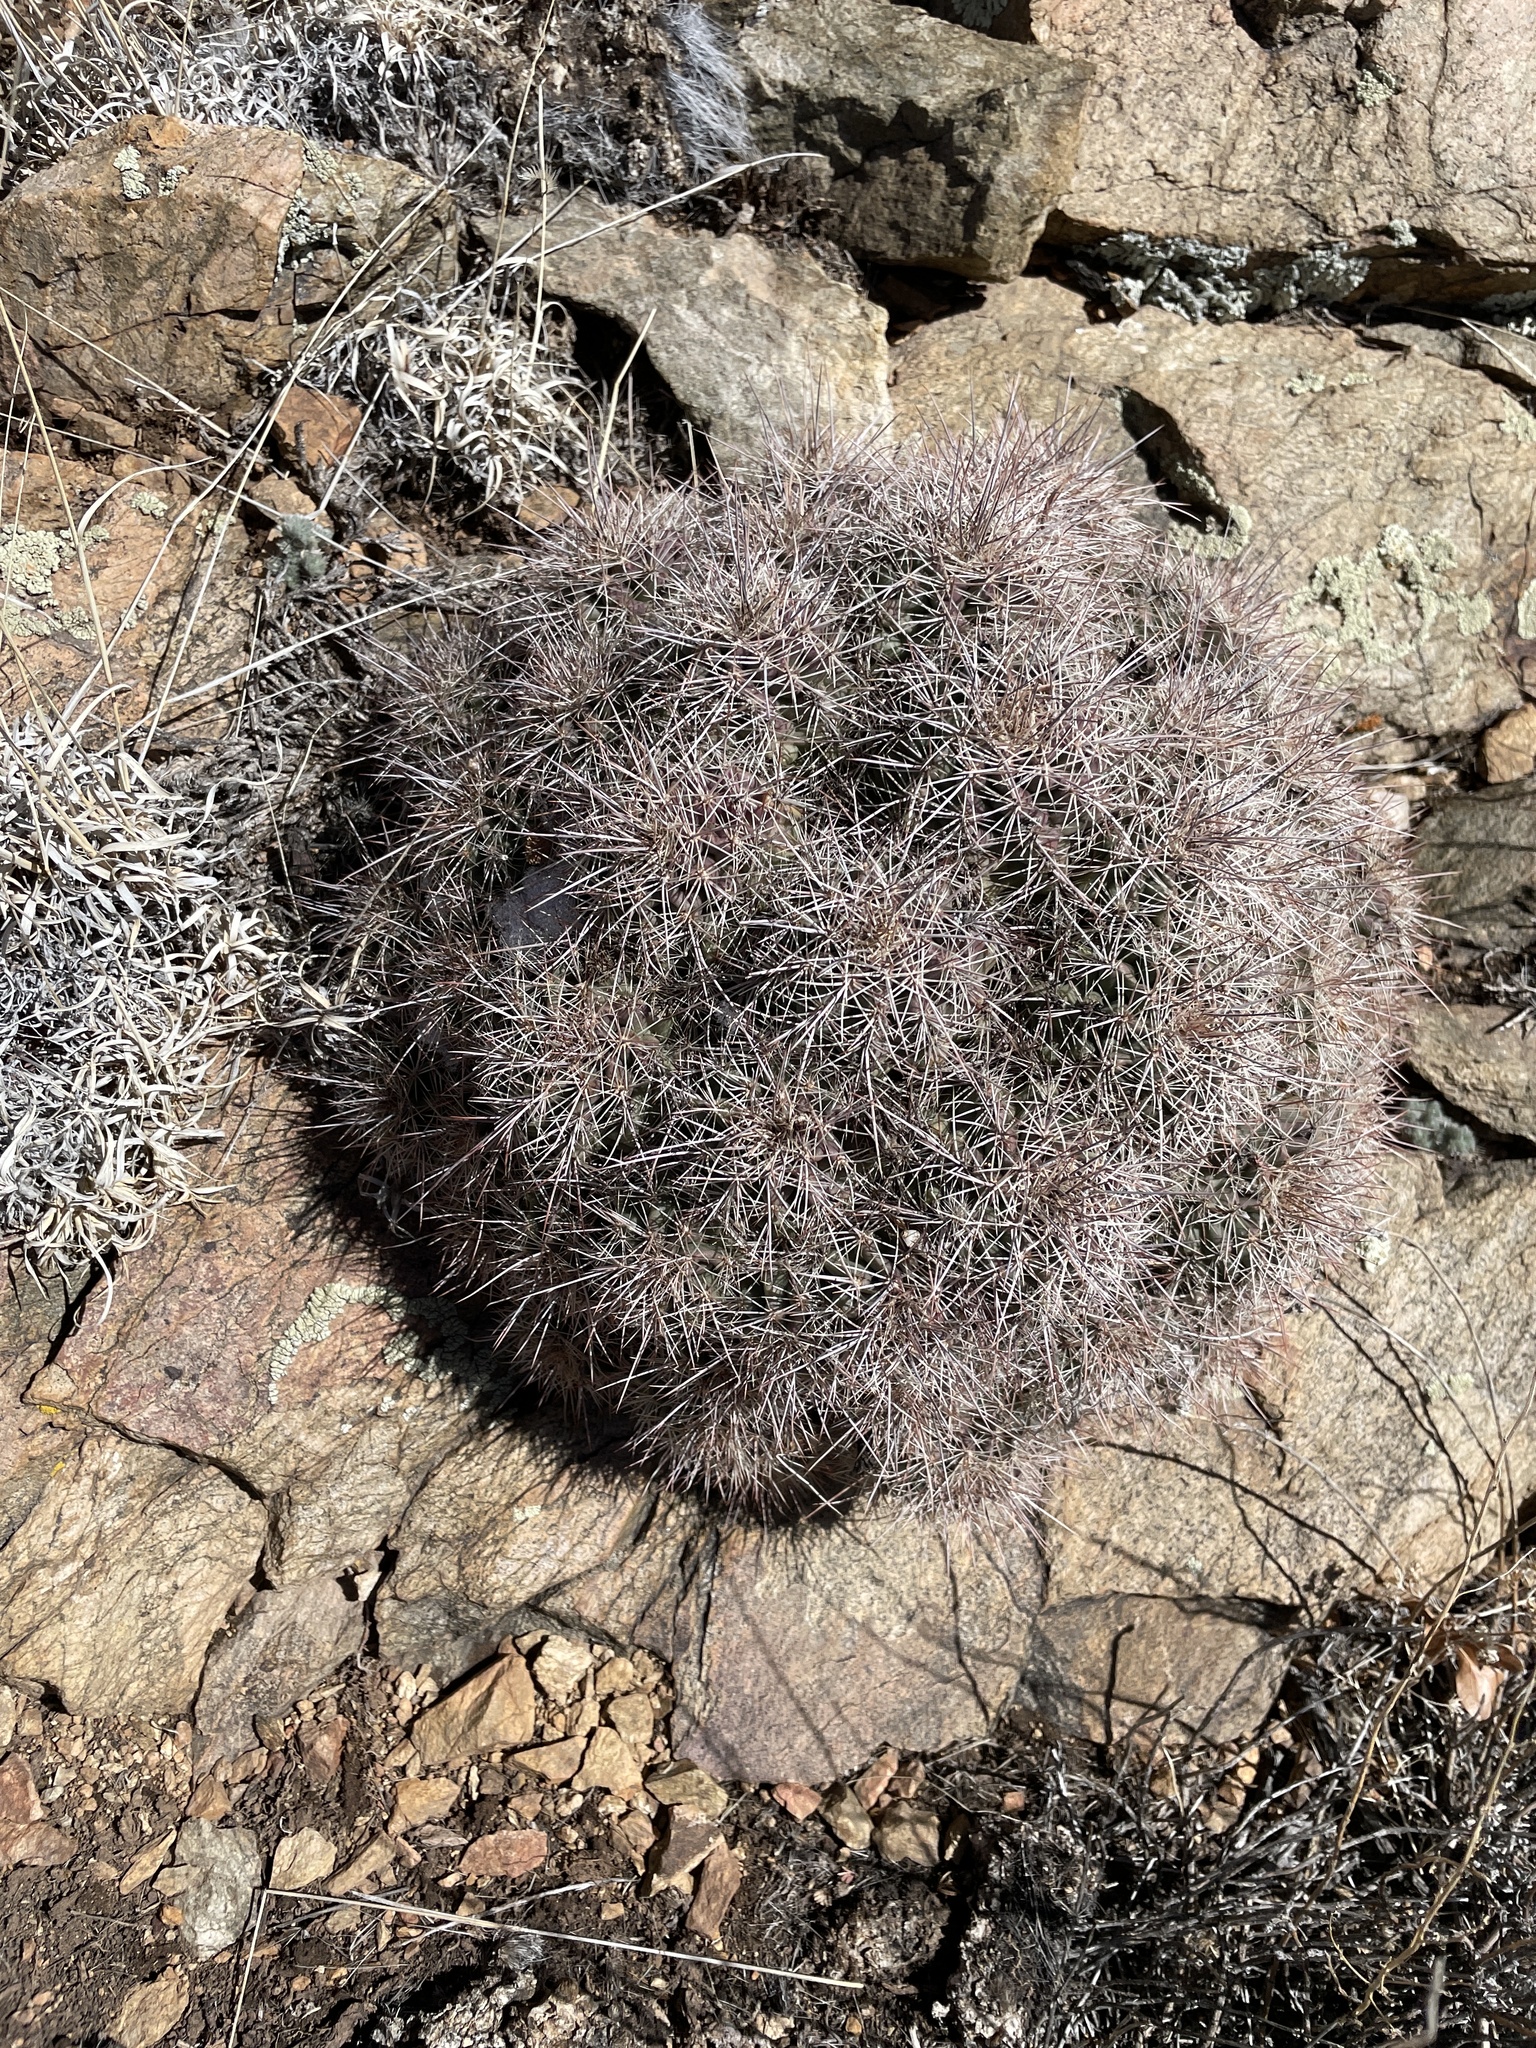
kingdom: Plantae
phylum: Tracheophyta
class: Magnoliopsida
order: Caryophyllales
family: Cactaceae
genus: Echinocereus
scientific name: Echinocereus coccineus
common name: Scarlet hedgehog cactus
